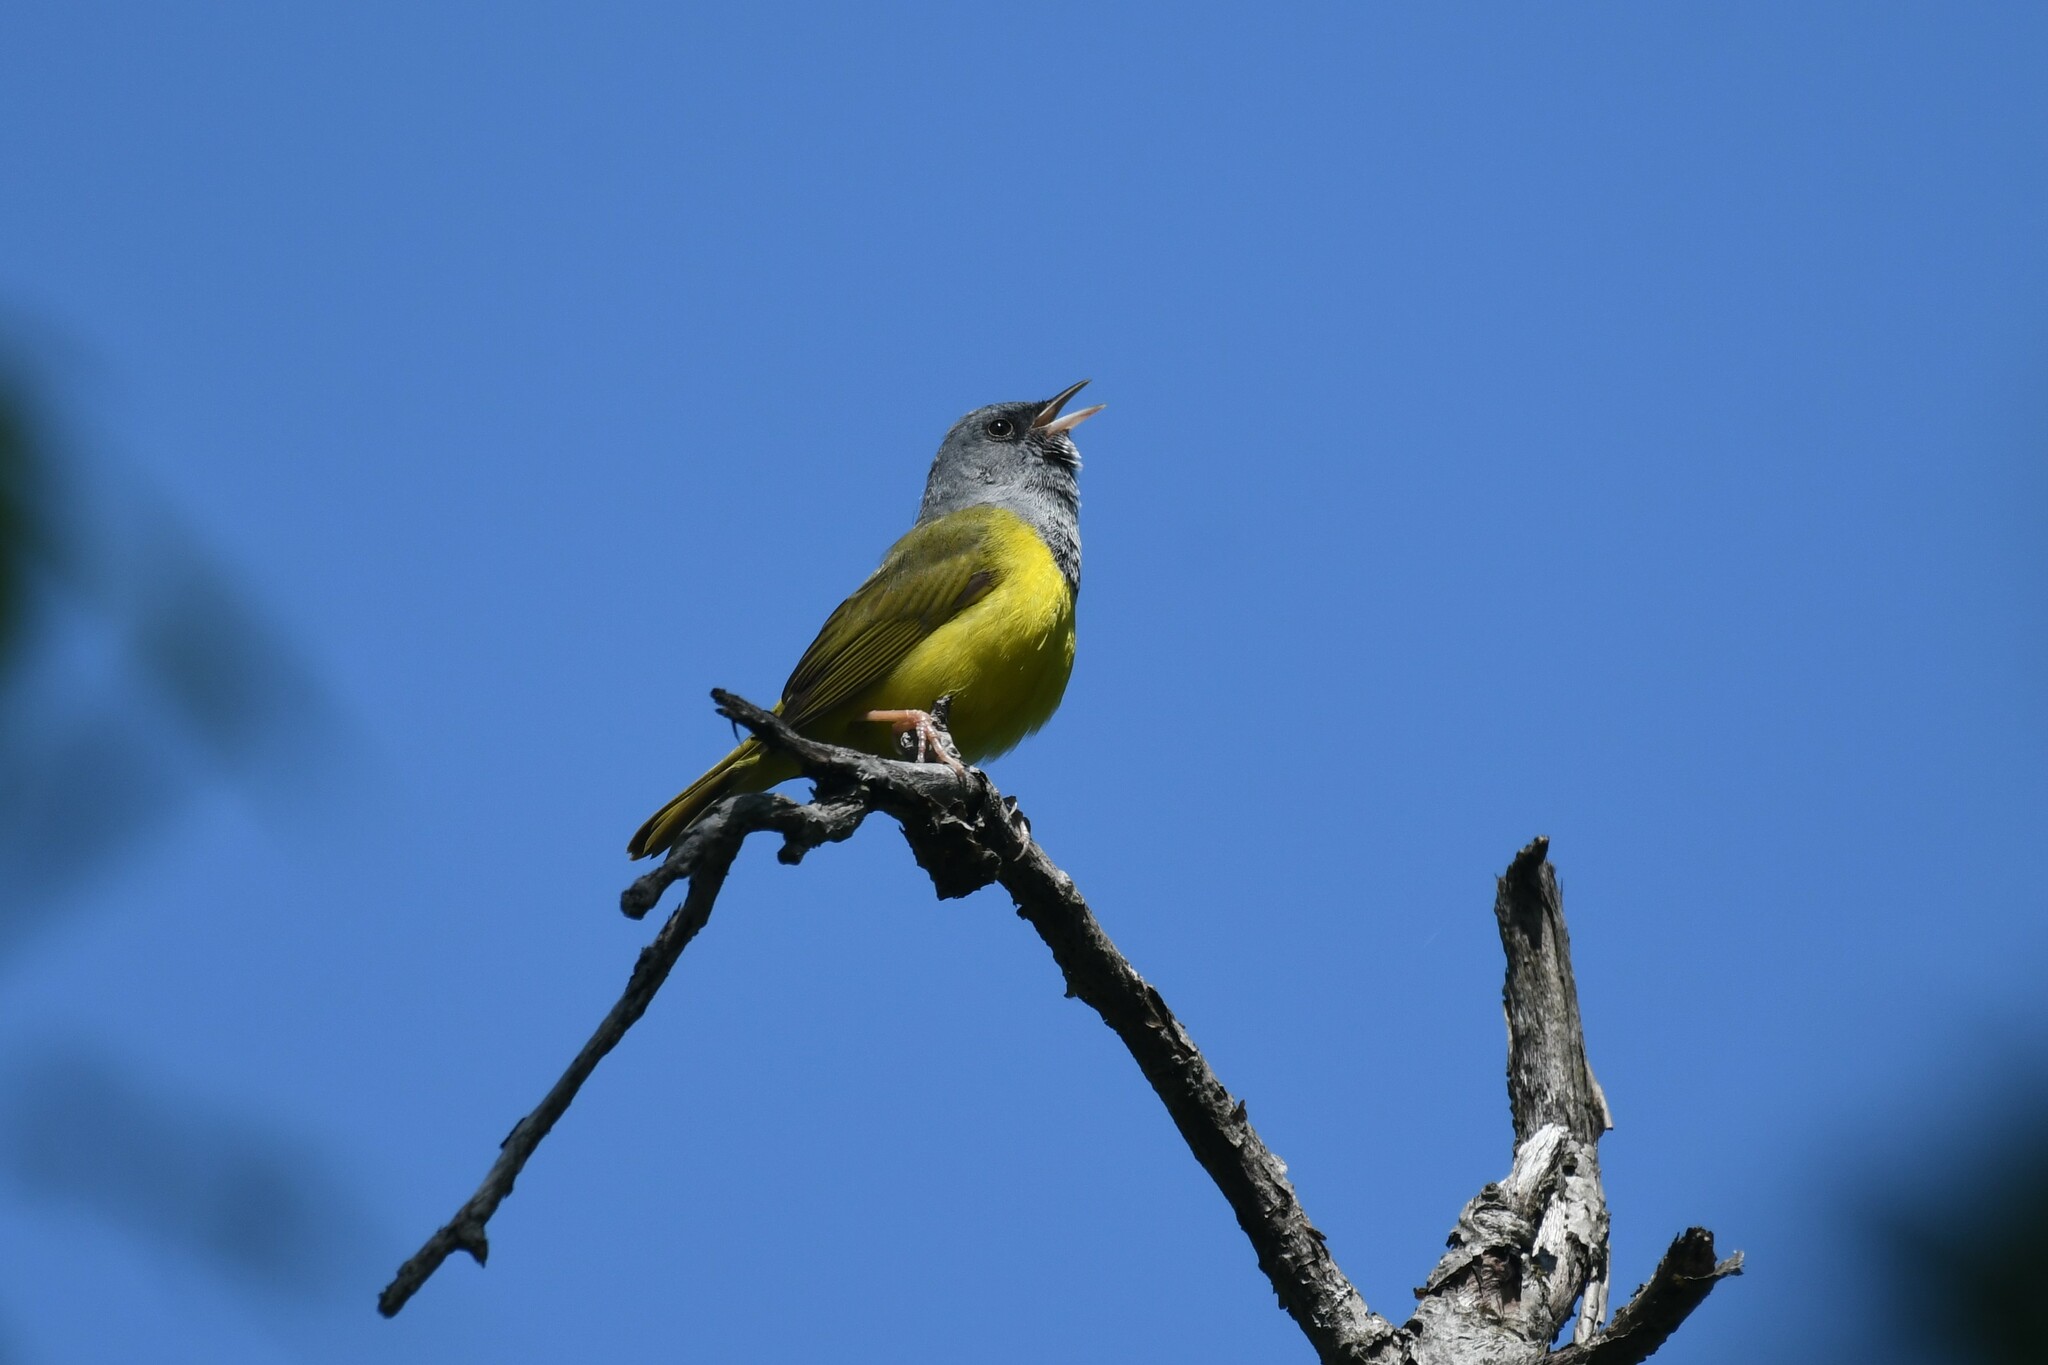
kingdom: Animalia
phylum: Chordata
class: Aves
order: Passeriformes
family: Parulidae
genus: Geothlypis
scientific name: Geothlypis philadelphia
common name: Mourning warbler
